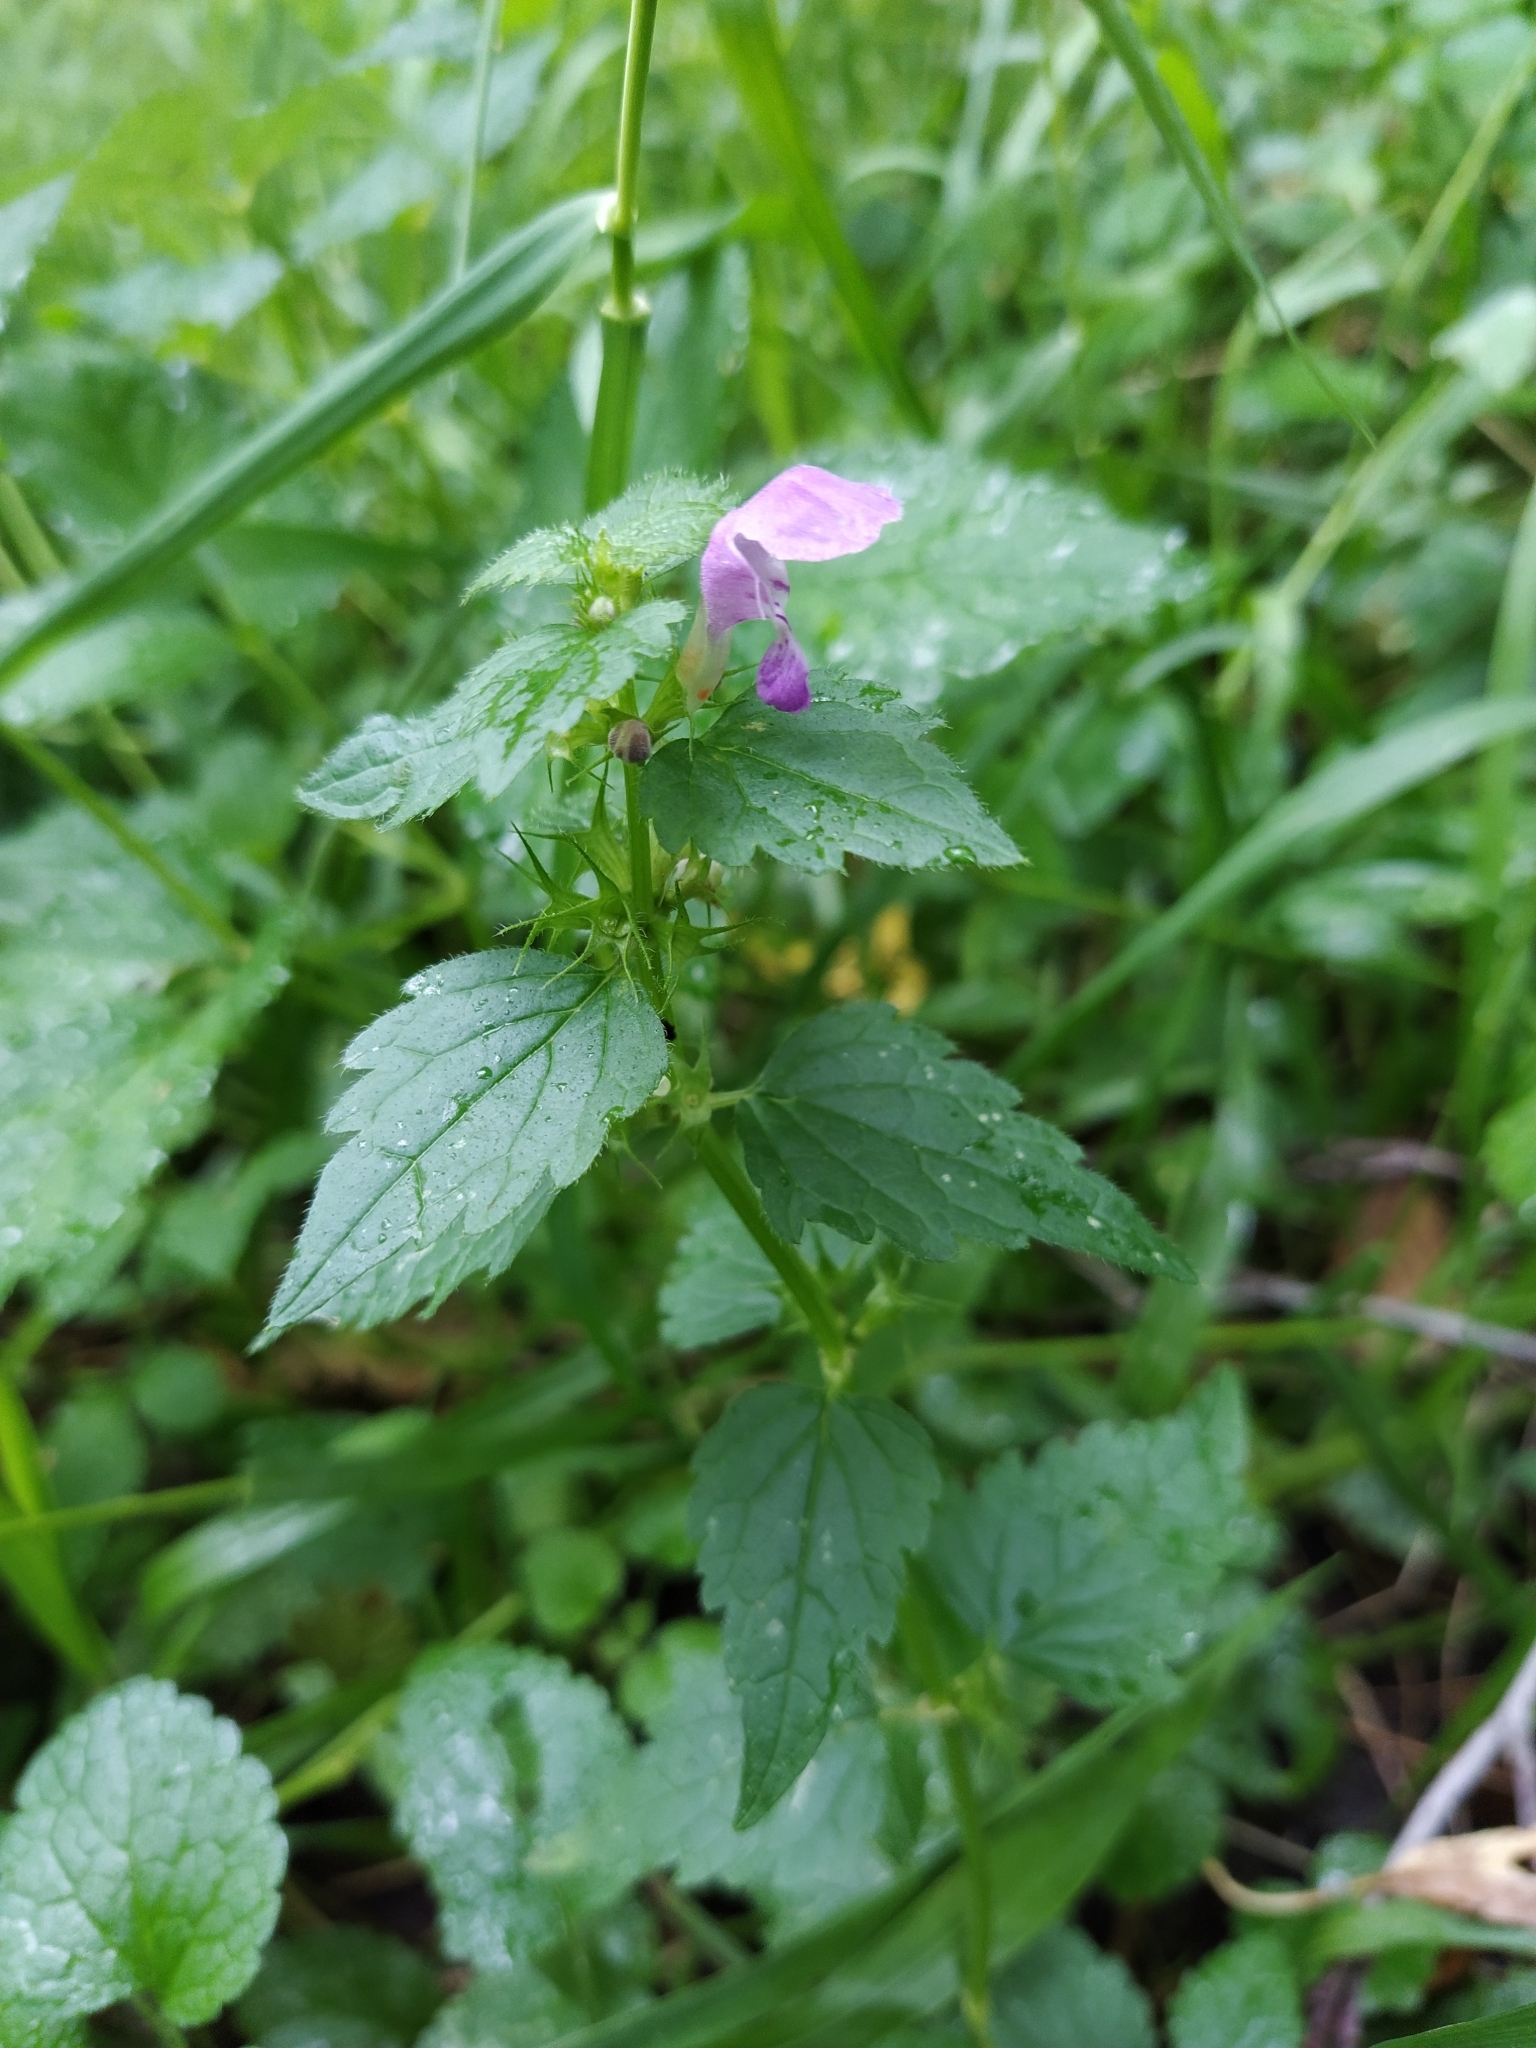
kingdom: Plantae
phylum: Tracheophyta
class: Magnoliopsida
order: Lamiales
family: Lamiaceae
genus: Lamium
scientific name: Lamium maculatum
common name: Spotted dead-nettle
